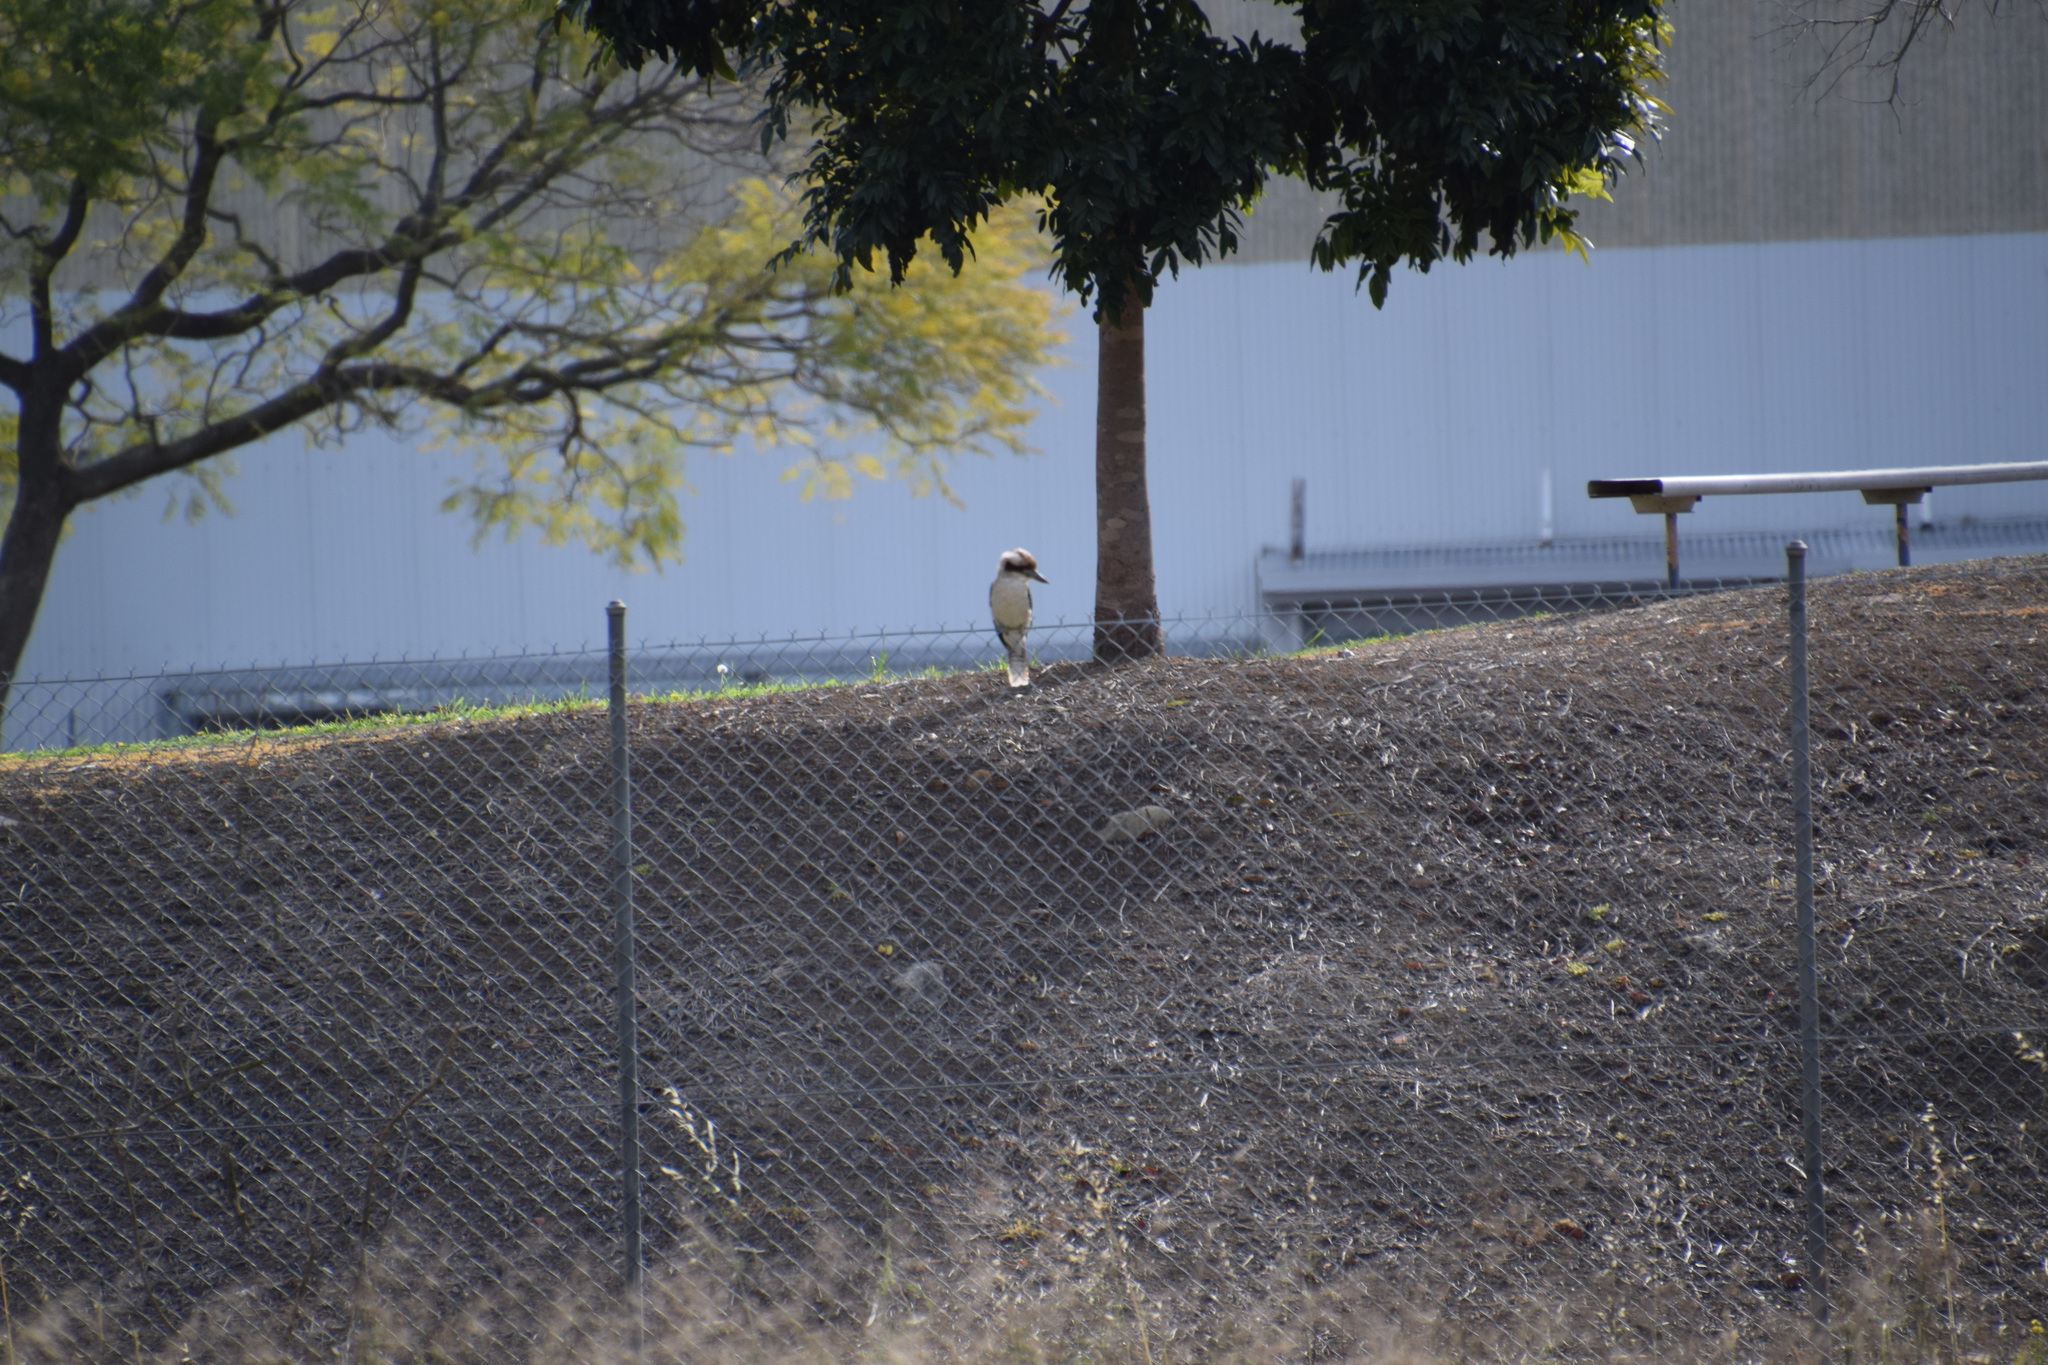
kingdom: Animalia
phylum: Chordata
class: Aves
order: Coraciiformes
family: Alcedinidae
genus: Dacelo
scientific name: Dacelo novaeguineae
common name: Laughing kookaburra
